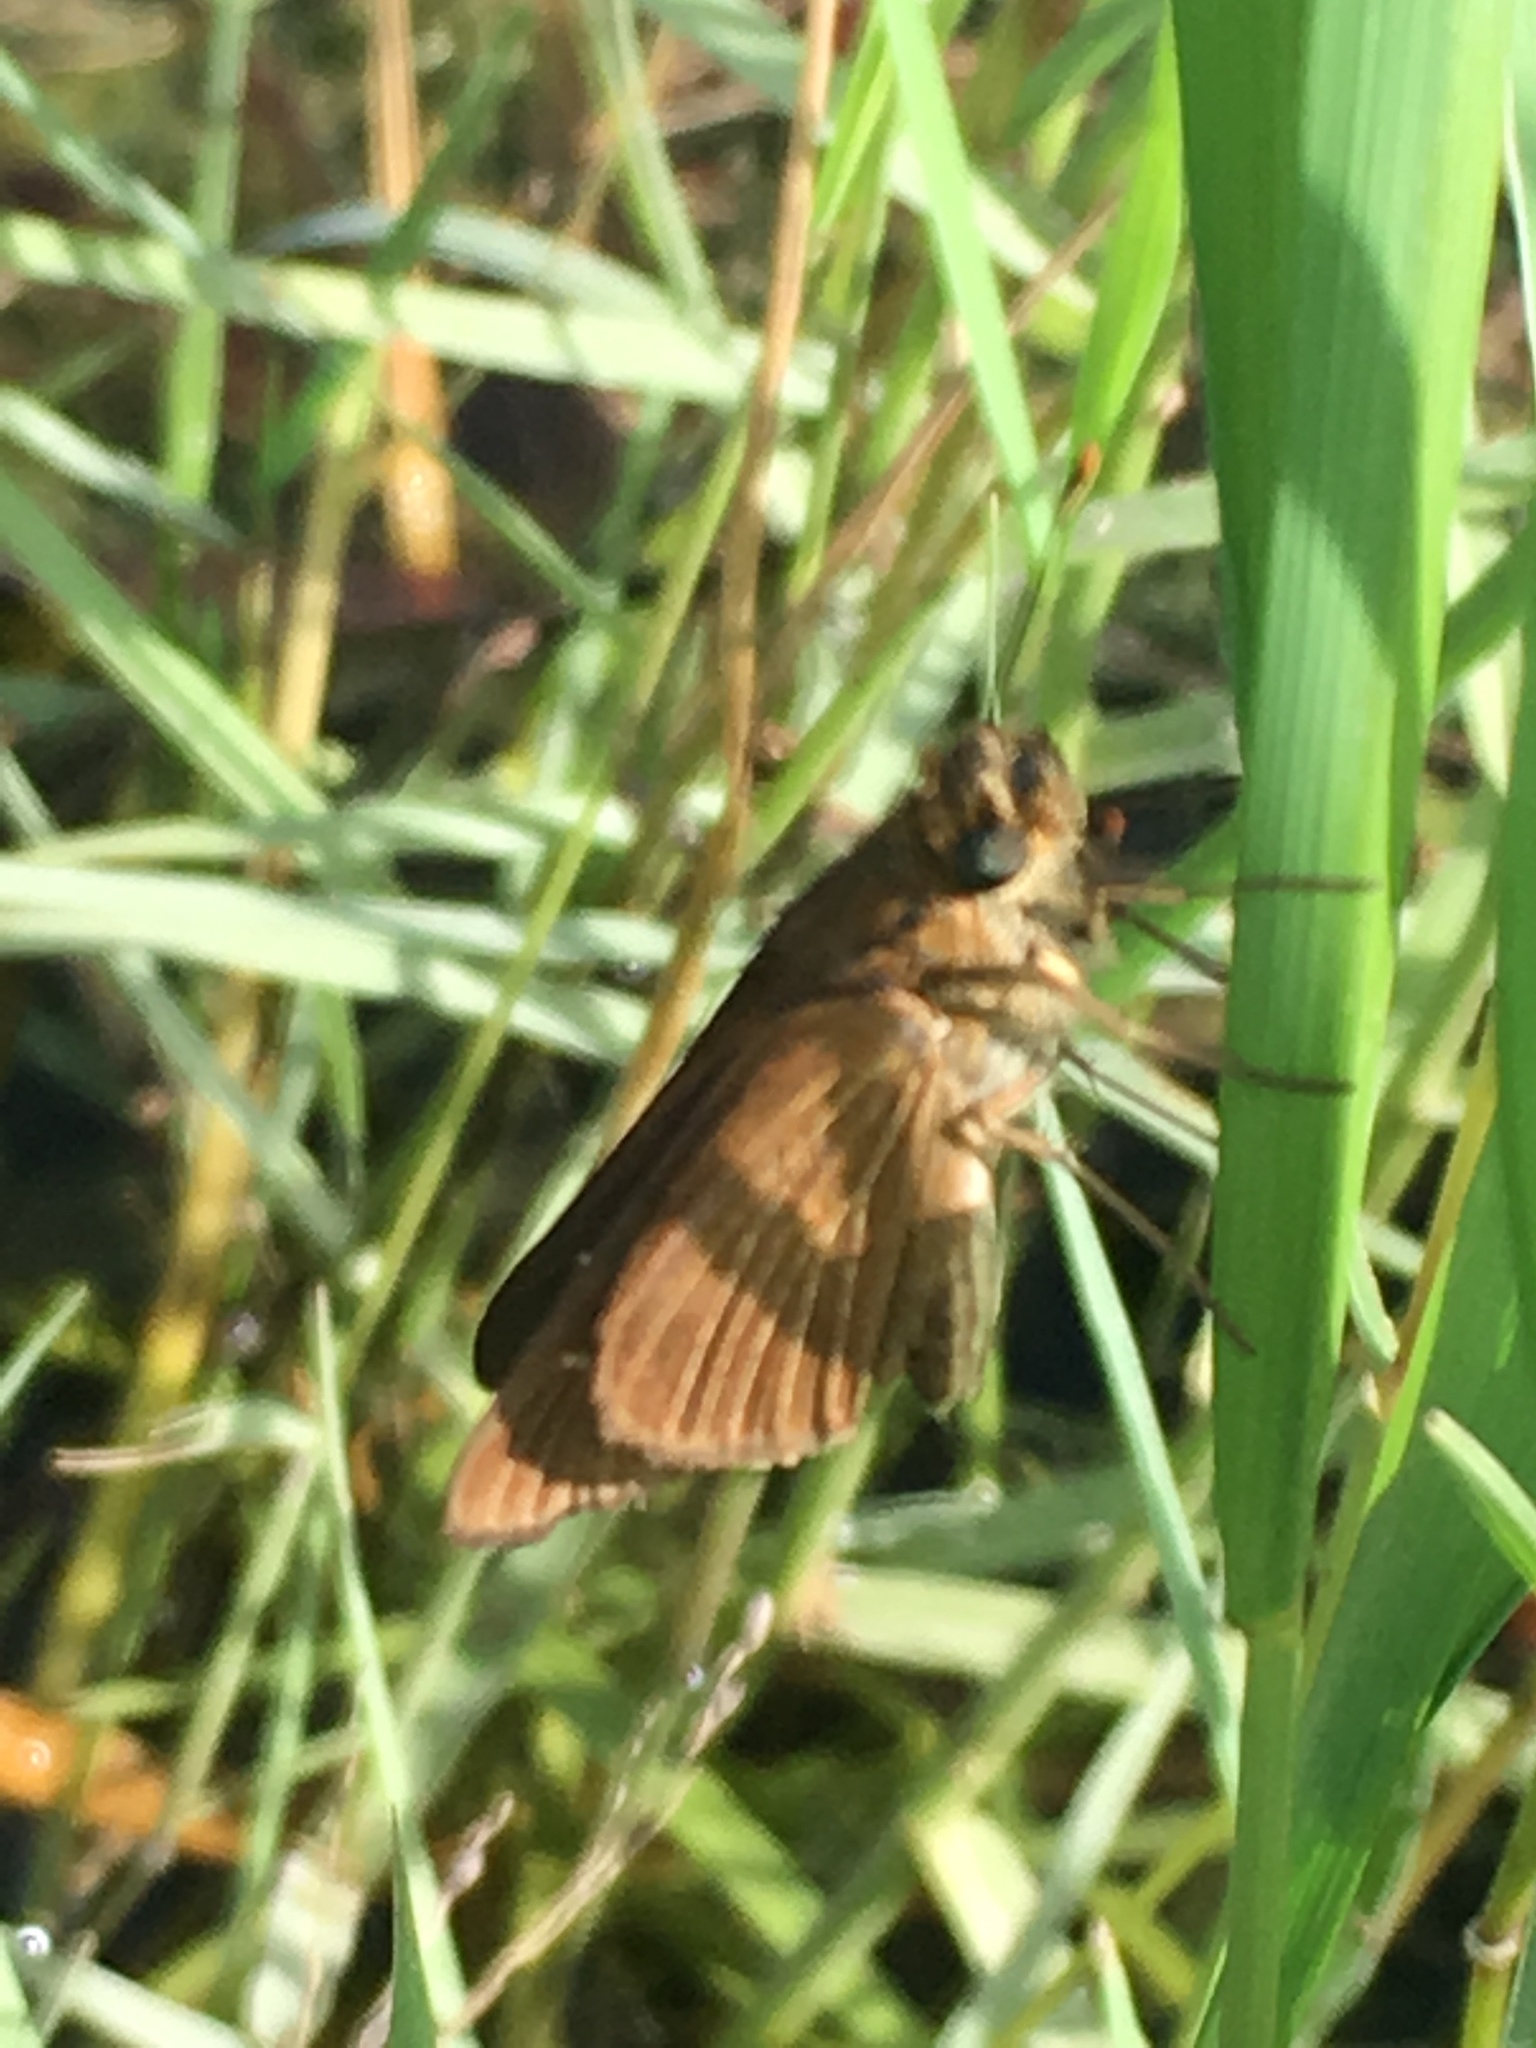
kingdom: Animalia
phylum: Arthropoda
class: Insecta
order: Lepidoptera
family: Hesperiidae
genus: Panoquina
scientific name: Panoquina ocola
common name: Ocola skipper
